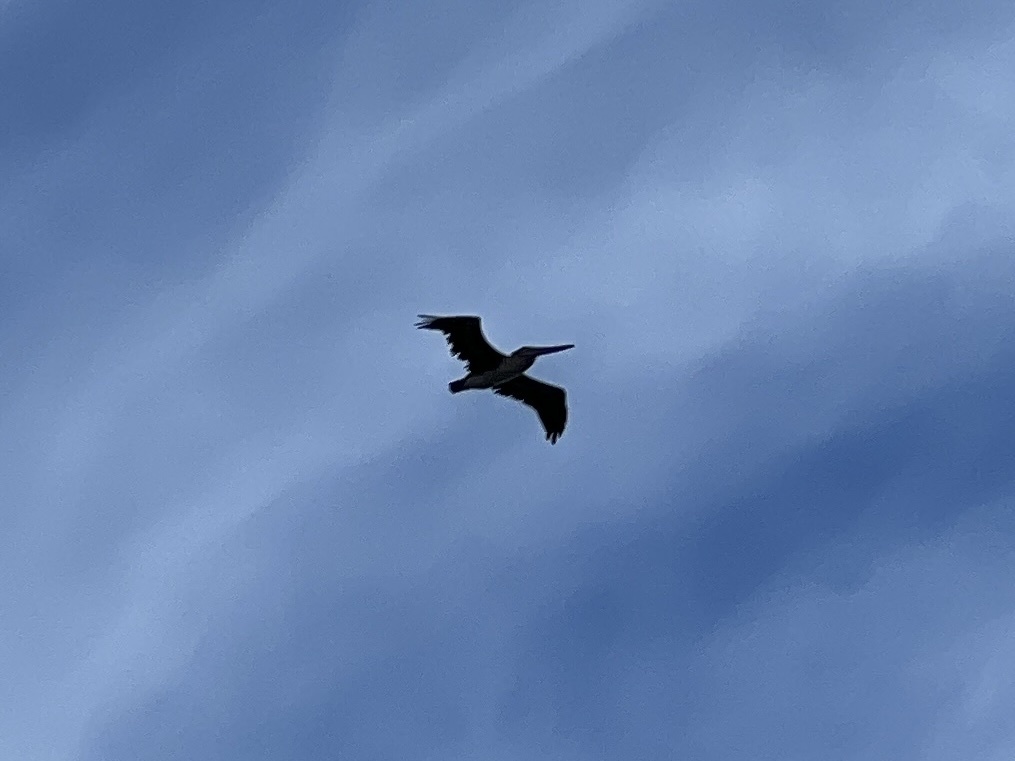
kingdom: Animalia
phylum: Chordata
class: Aves
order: Pelecaniformes
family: Pelecanidae
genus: Pelecanus
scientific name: Pelecanus occidentalis
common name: Brown pelican
